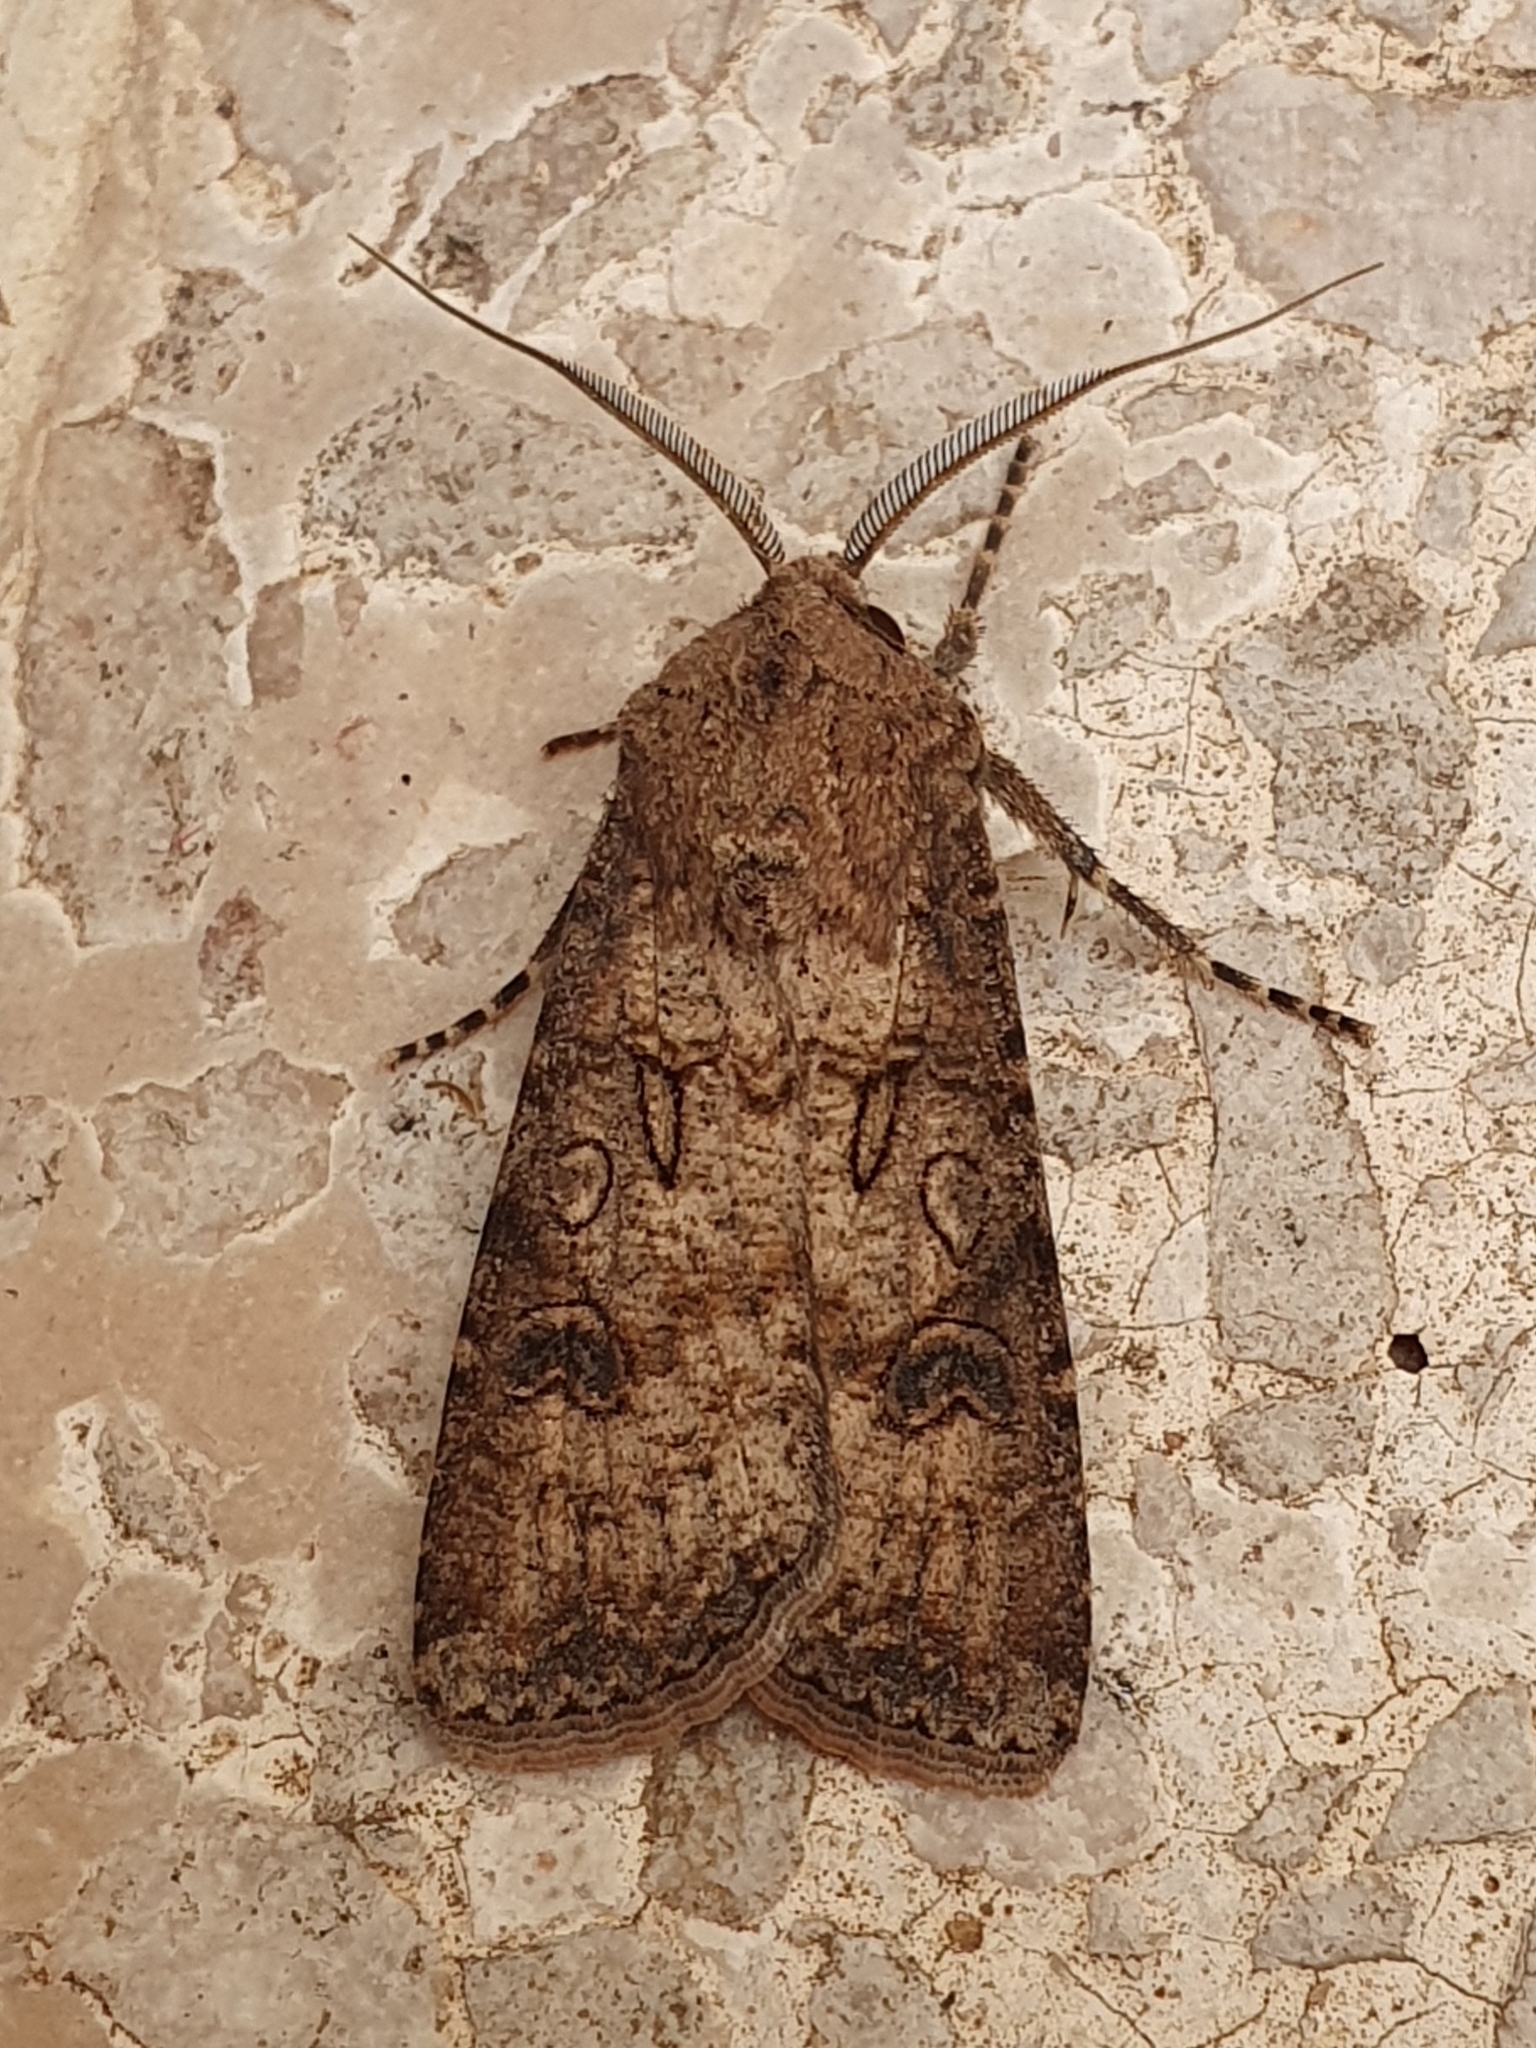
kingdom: Animalia
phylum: Arthropoda
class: Insecta
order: Lepidoptera
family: Noctuidae
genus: Agrotis
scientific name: Agrotis segetum
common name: Turnip moth
